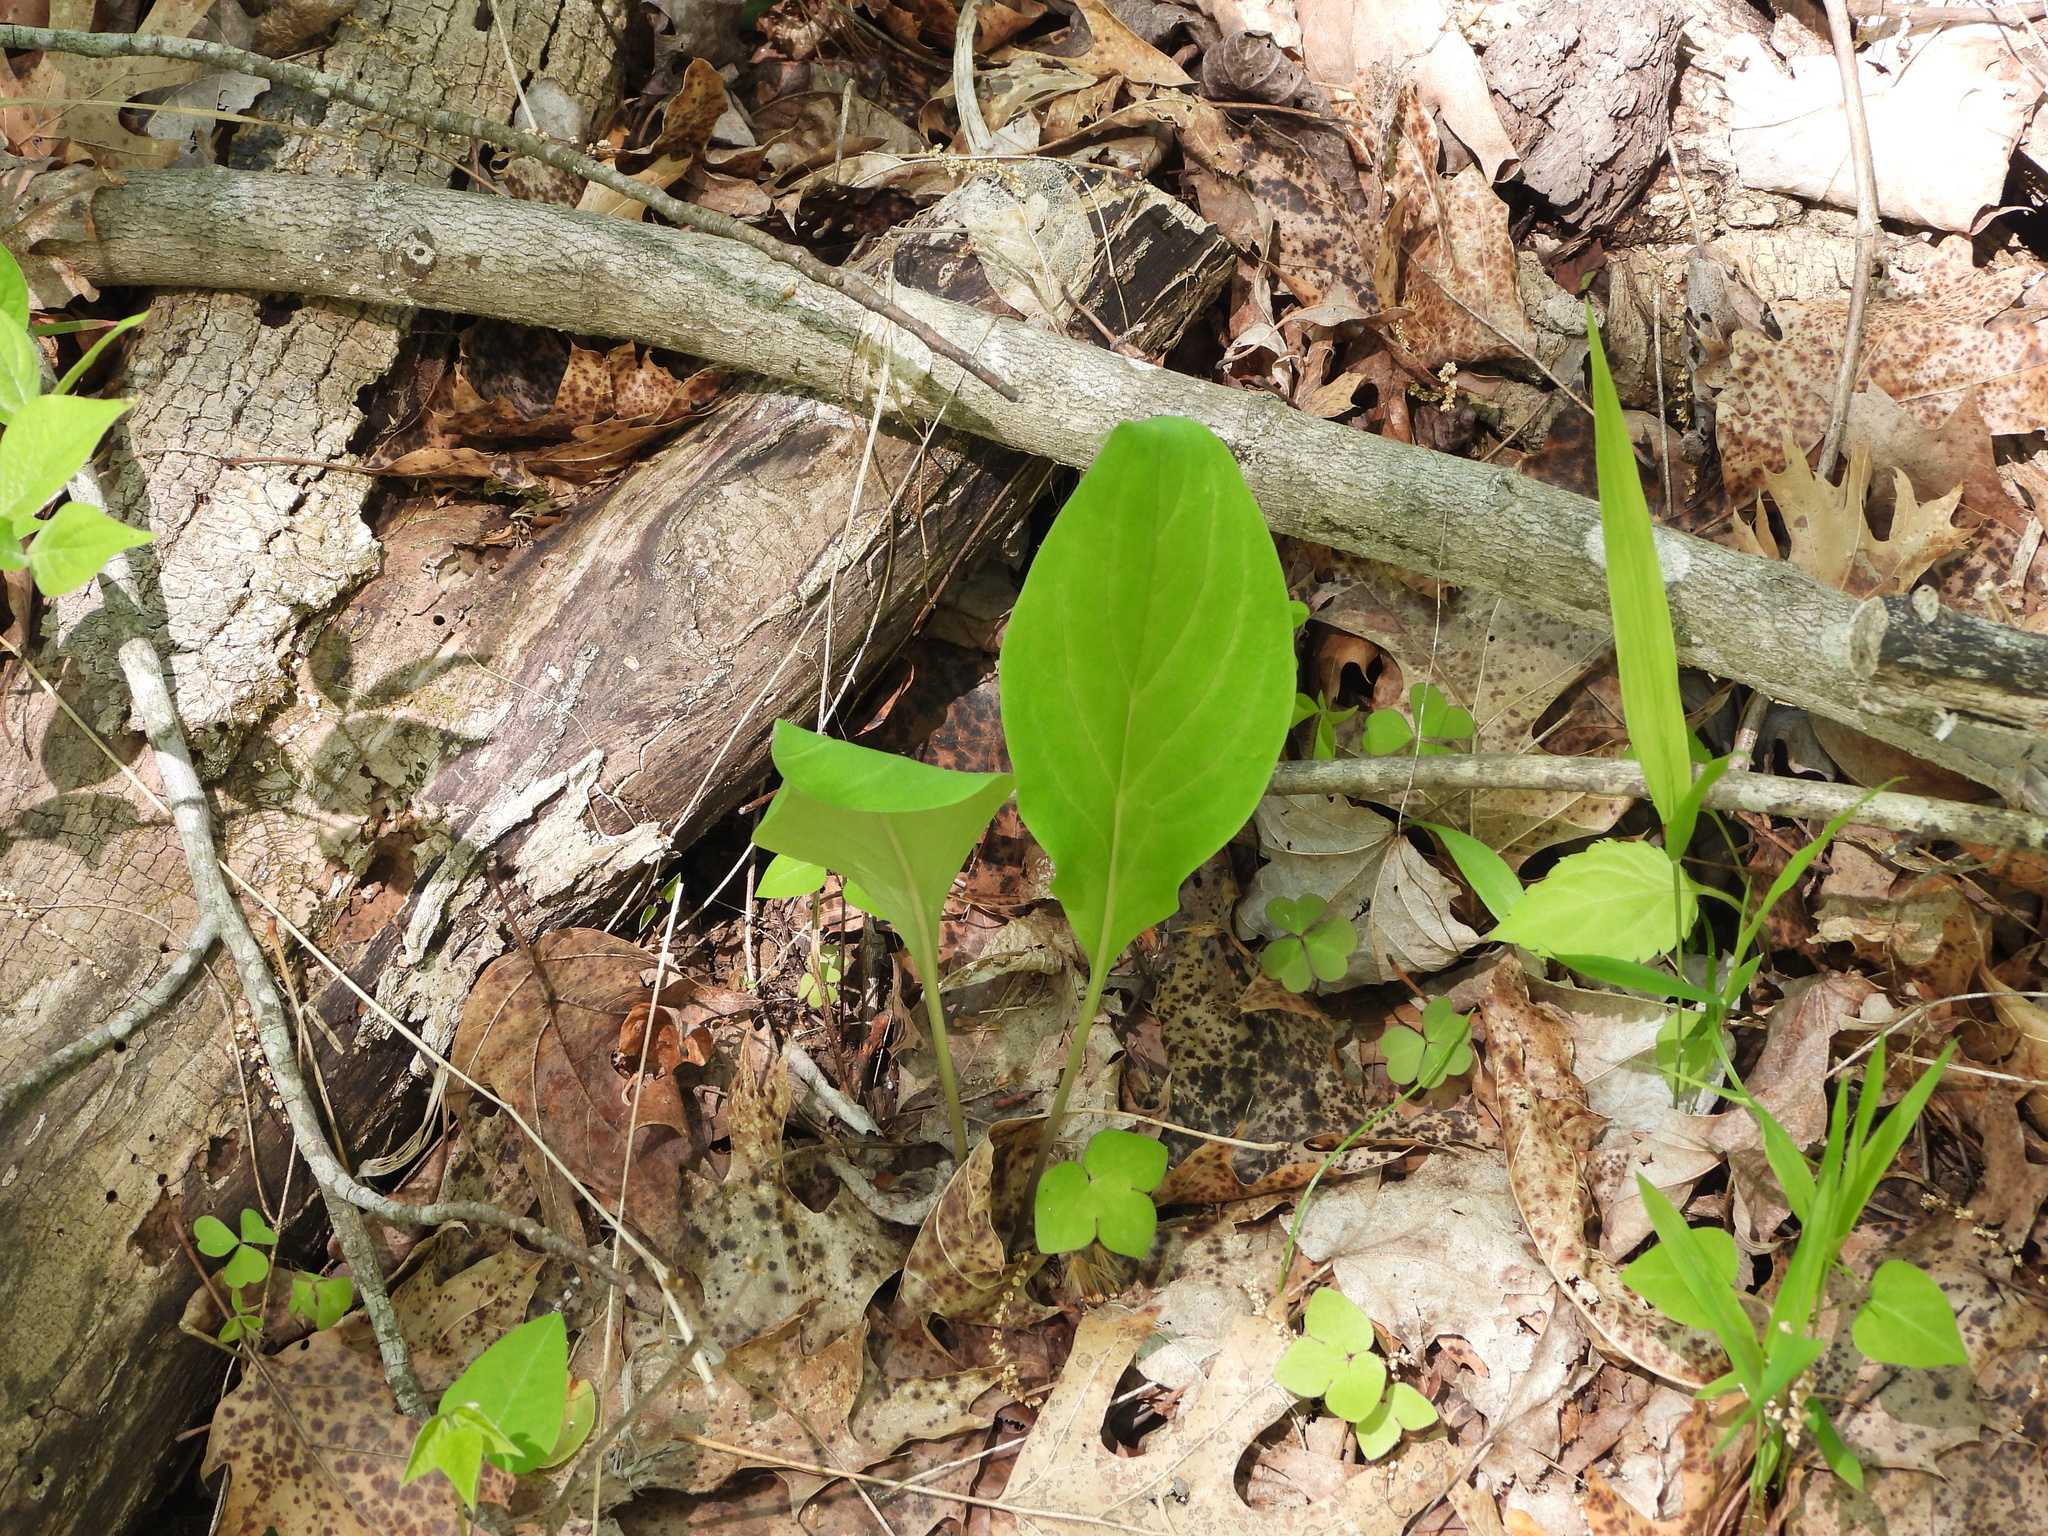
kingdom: Plantae
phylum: Tracheophyta
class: Magnoliopsida
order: Boraginales
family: Boraginaceae
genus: Mertensia
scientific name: Mertensia virginica
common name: Virginia bluebells
